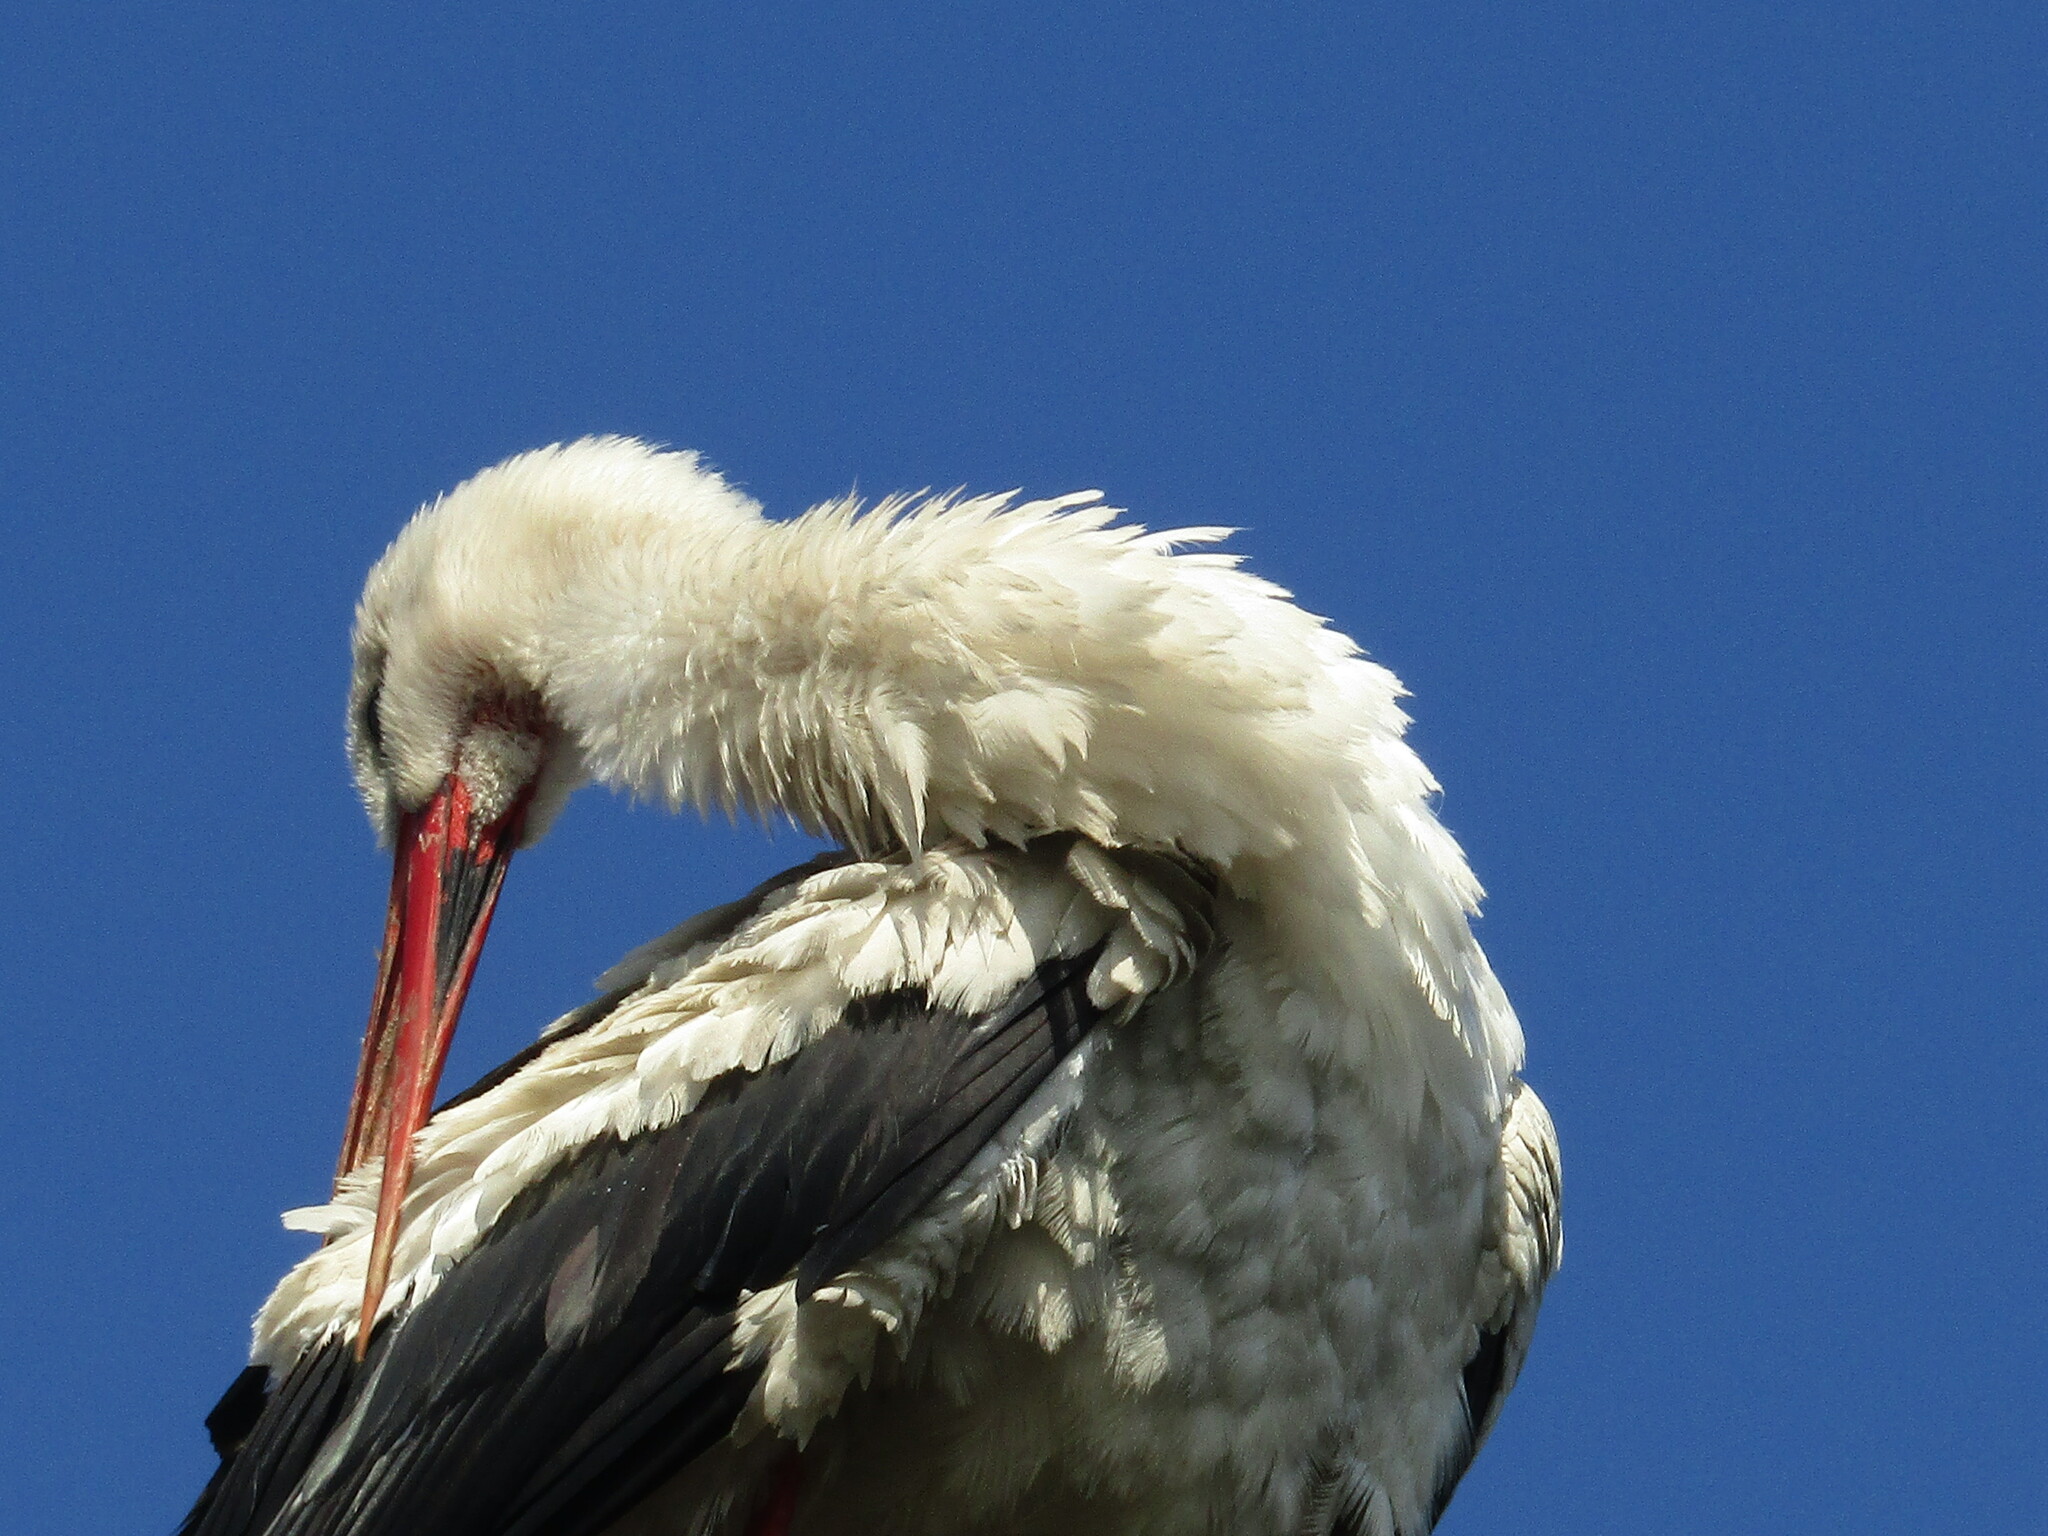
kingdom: Animalia
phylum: Chordata
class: Aves
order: Ciconiiformes
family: Ciconiidae
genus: Ciconia
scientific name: Ciconia ciconia
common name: White stork
